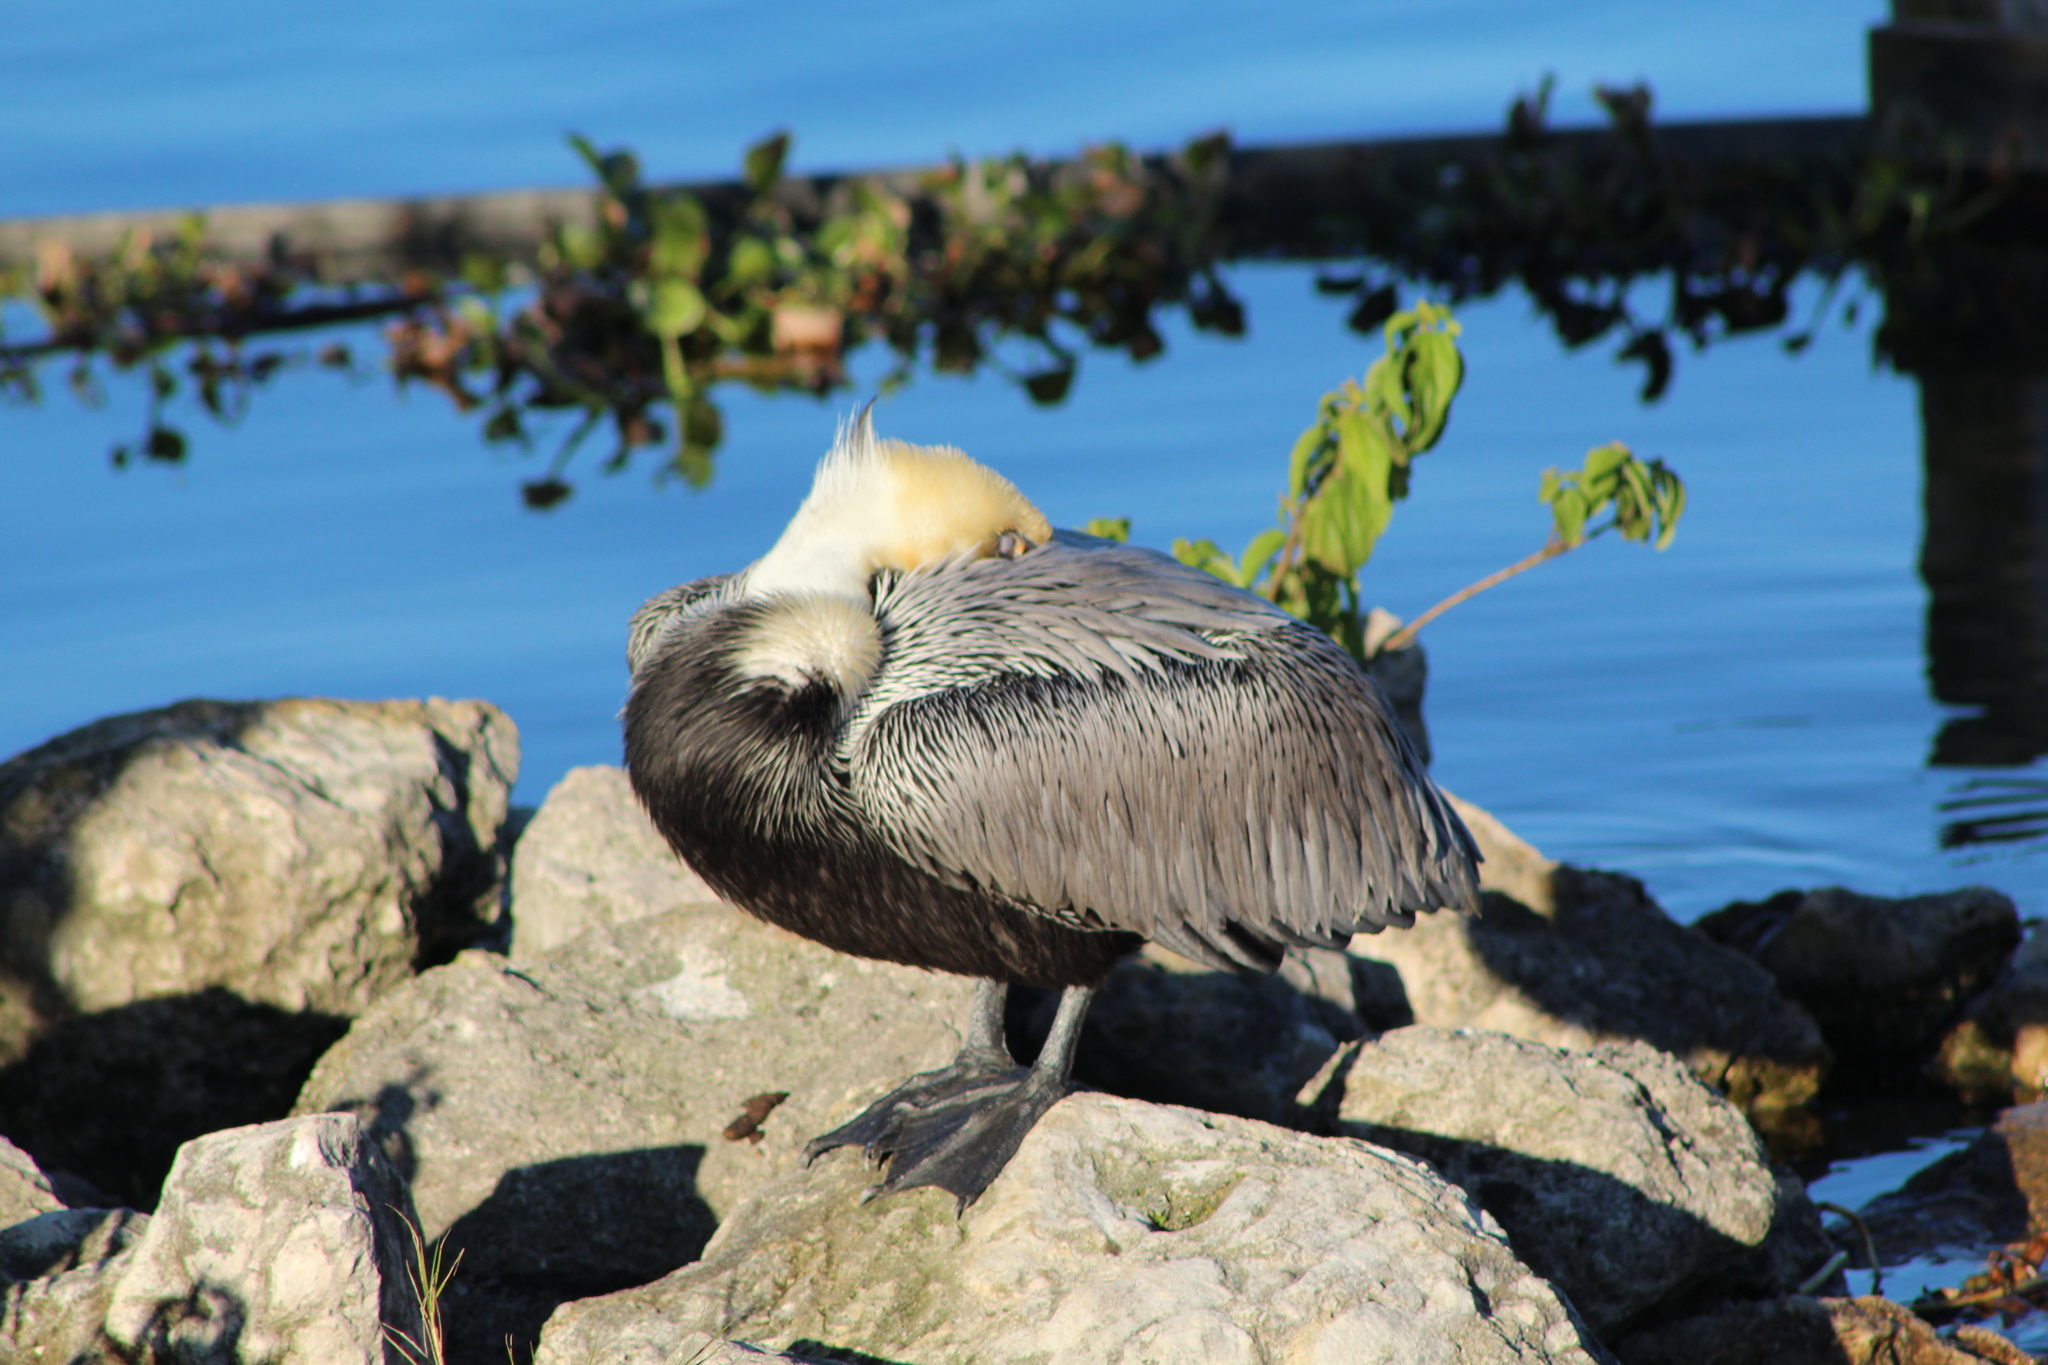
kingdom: Animalia
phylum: Chordata
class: Aves
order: Pelecaniformes
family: Pelecanidae
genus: Pelecanus
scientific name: Pelecanus occidentalis
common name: Brown pelican
